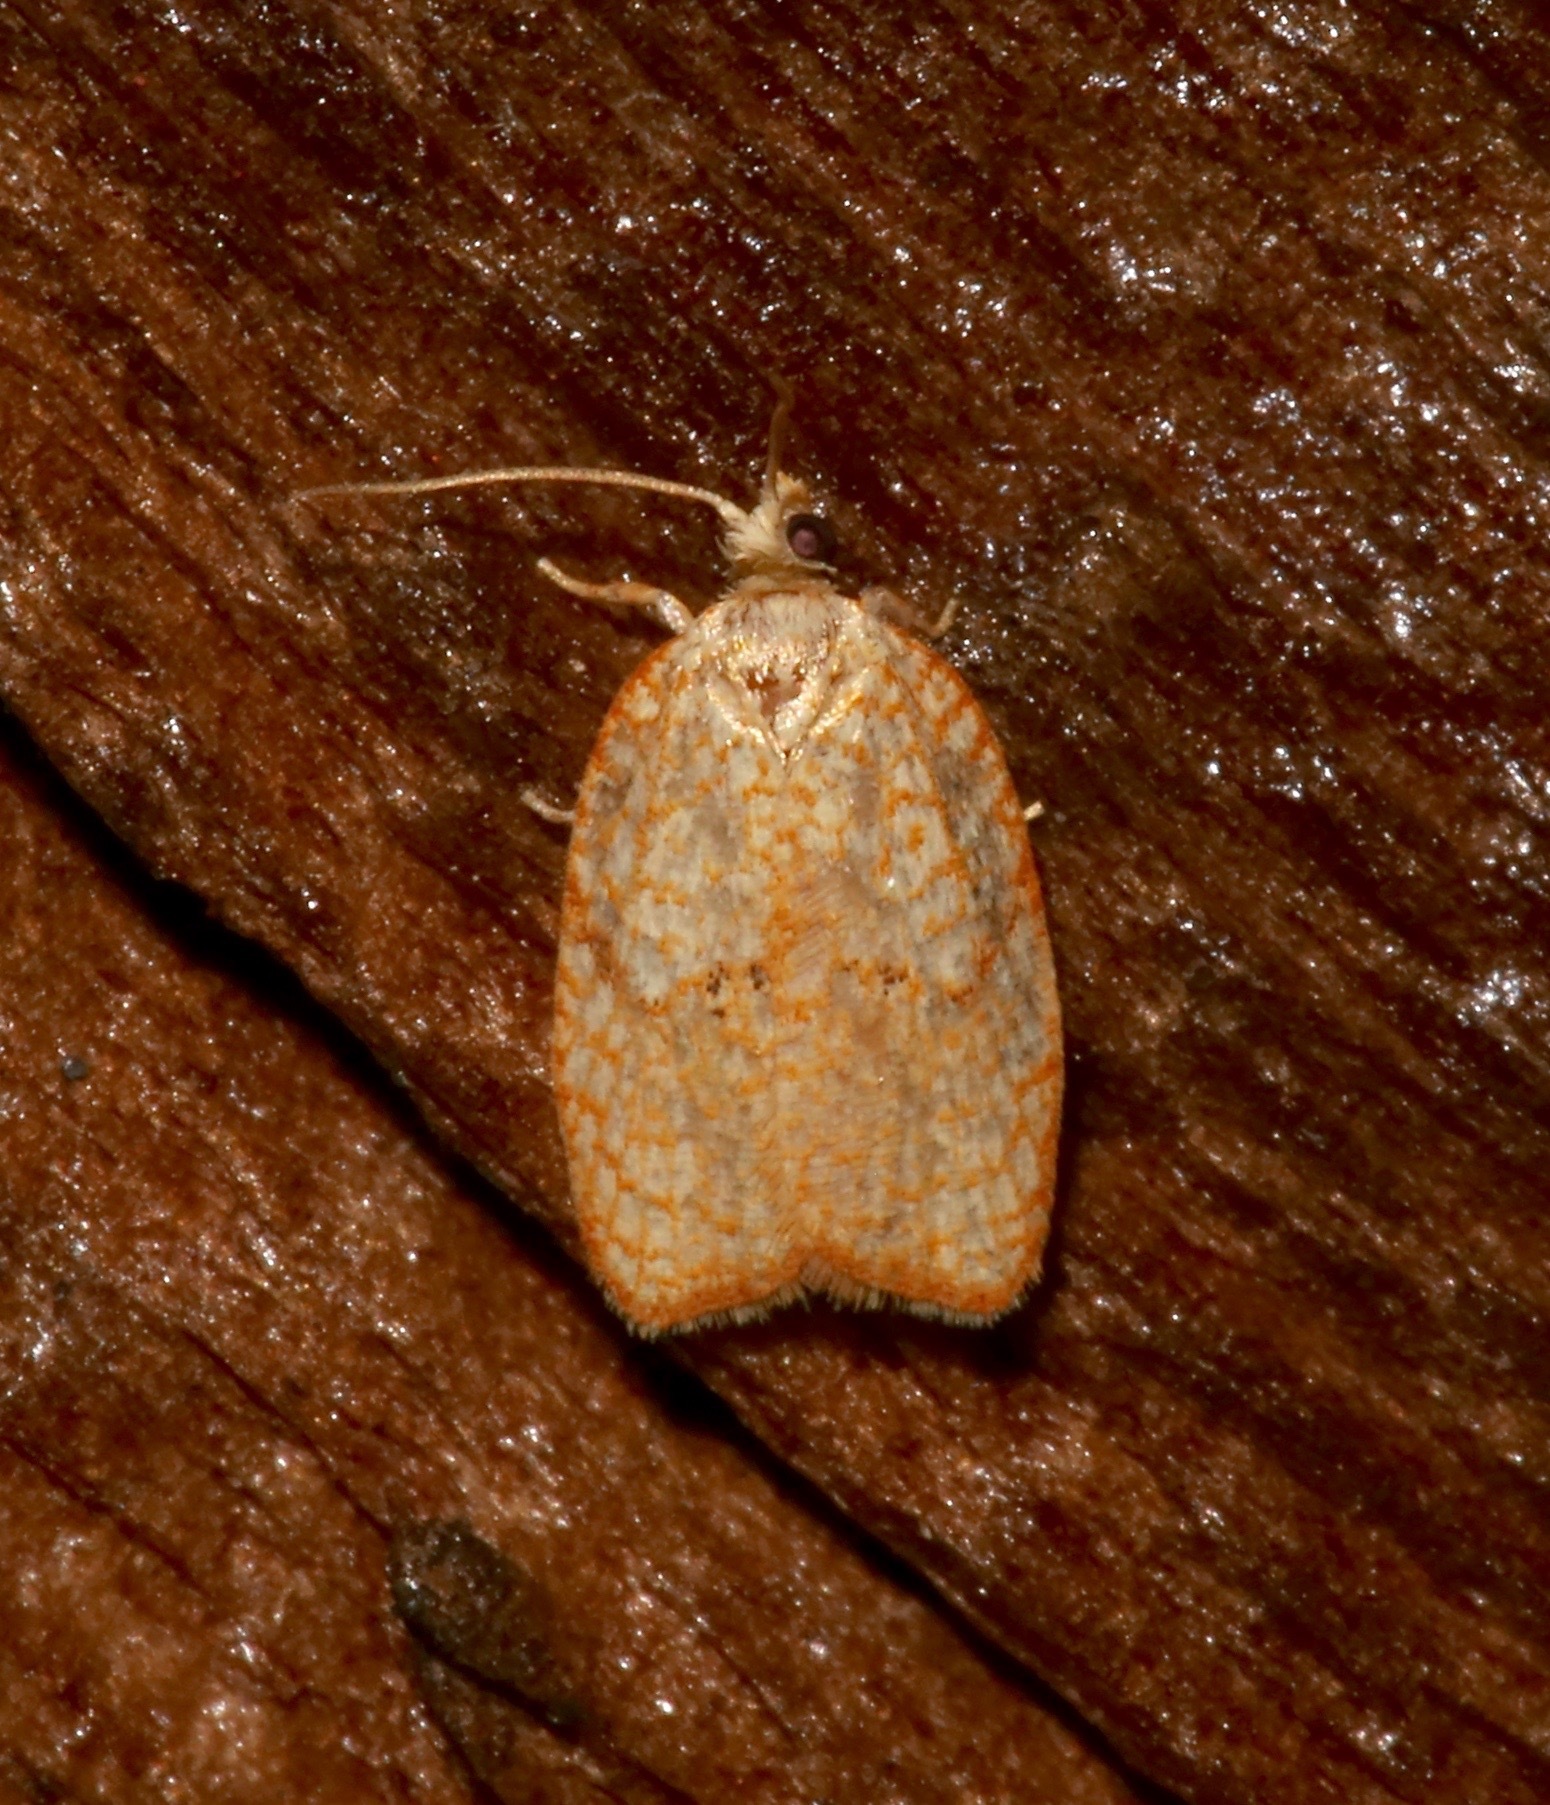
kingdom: Animalia
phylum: Arthropoda
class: Insecta
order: Lepidoptera
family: Tortricidae
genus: Acleris
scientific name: Acleris forsskaleana
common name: Maple button
